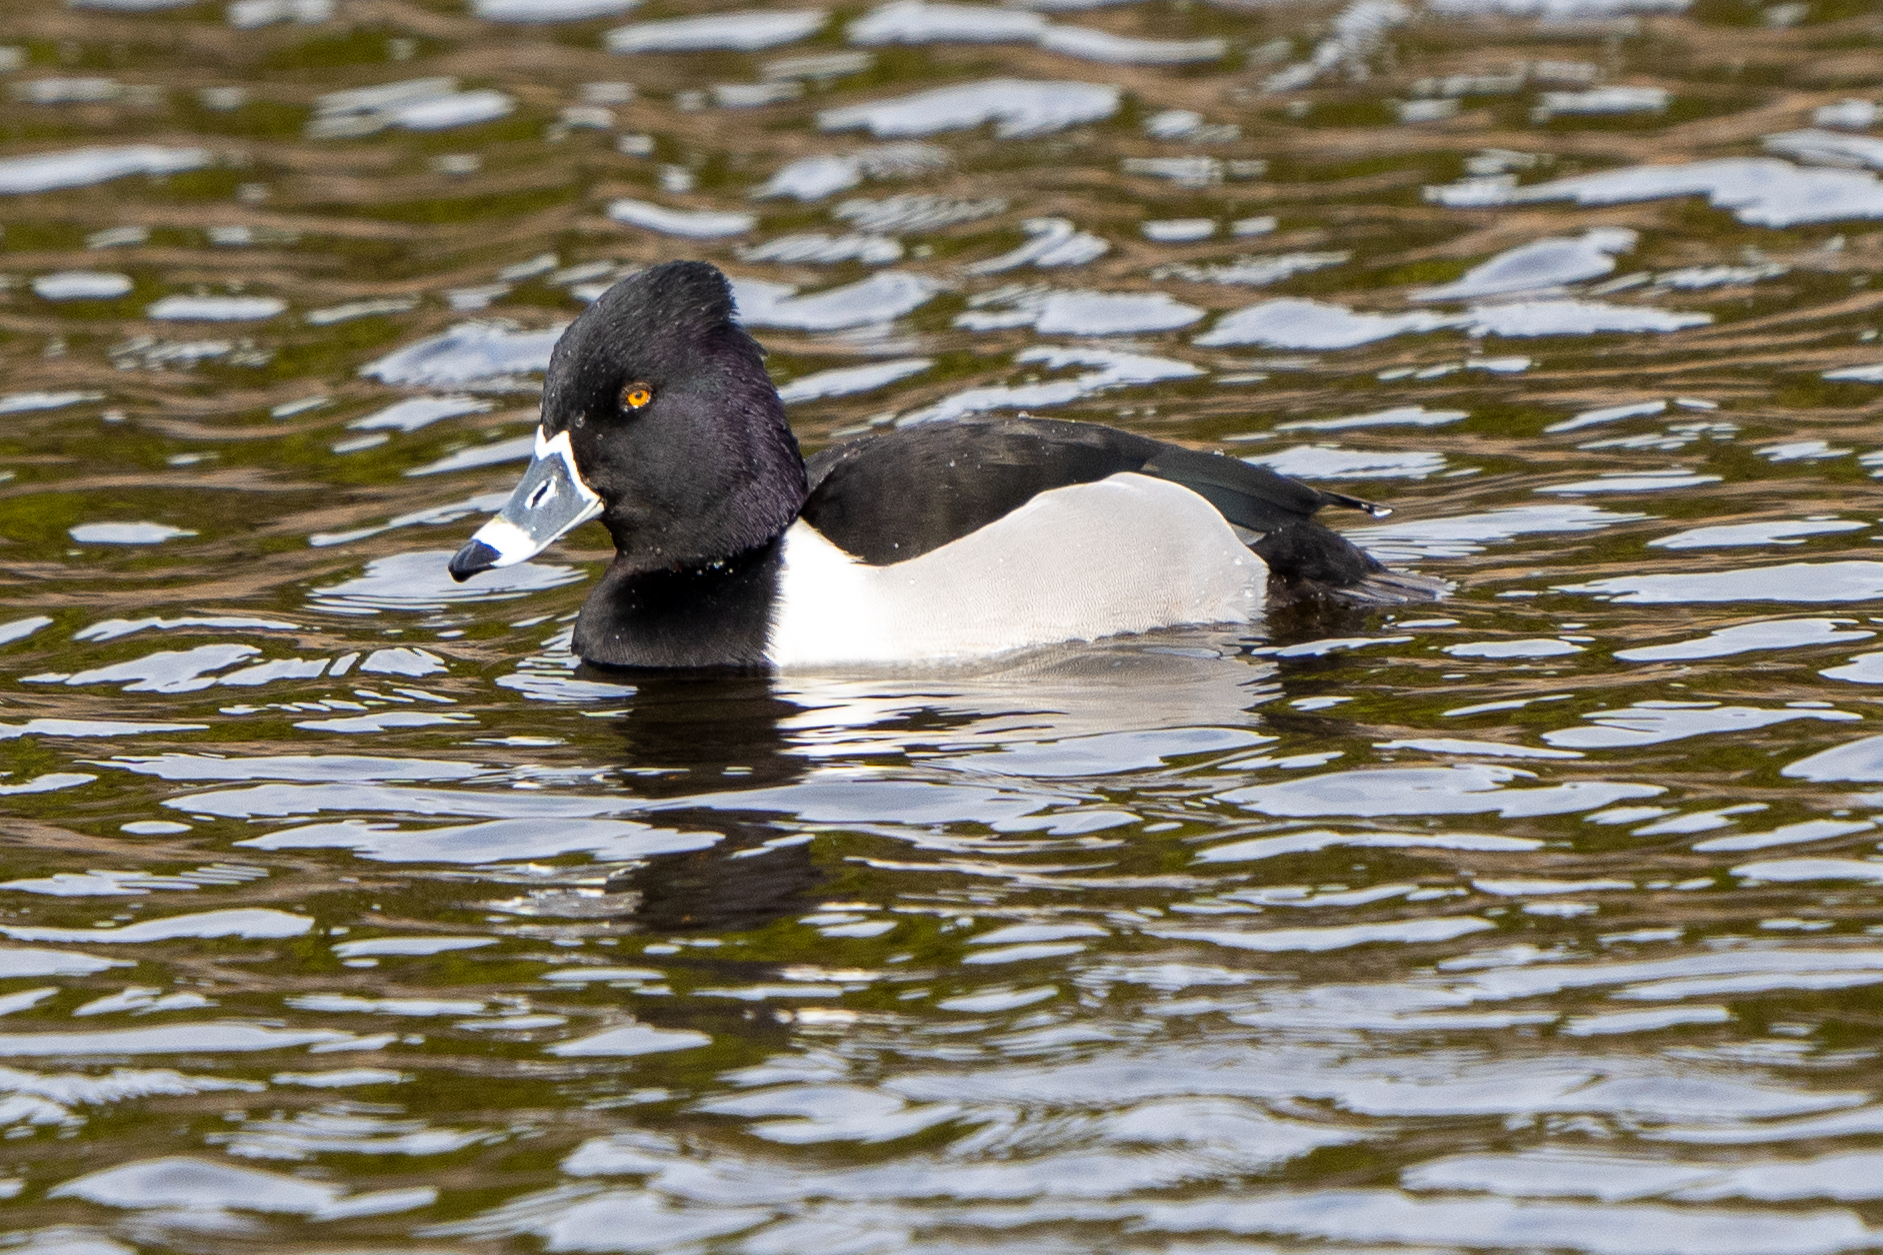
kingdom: Animalia
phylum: Chordata
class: Aves
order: Anseriformes
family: Anatidae
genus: Aythya
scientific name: Aythya collaris
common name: Ring-necked duck
